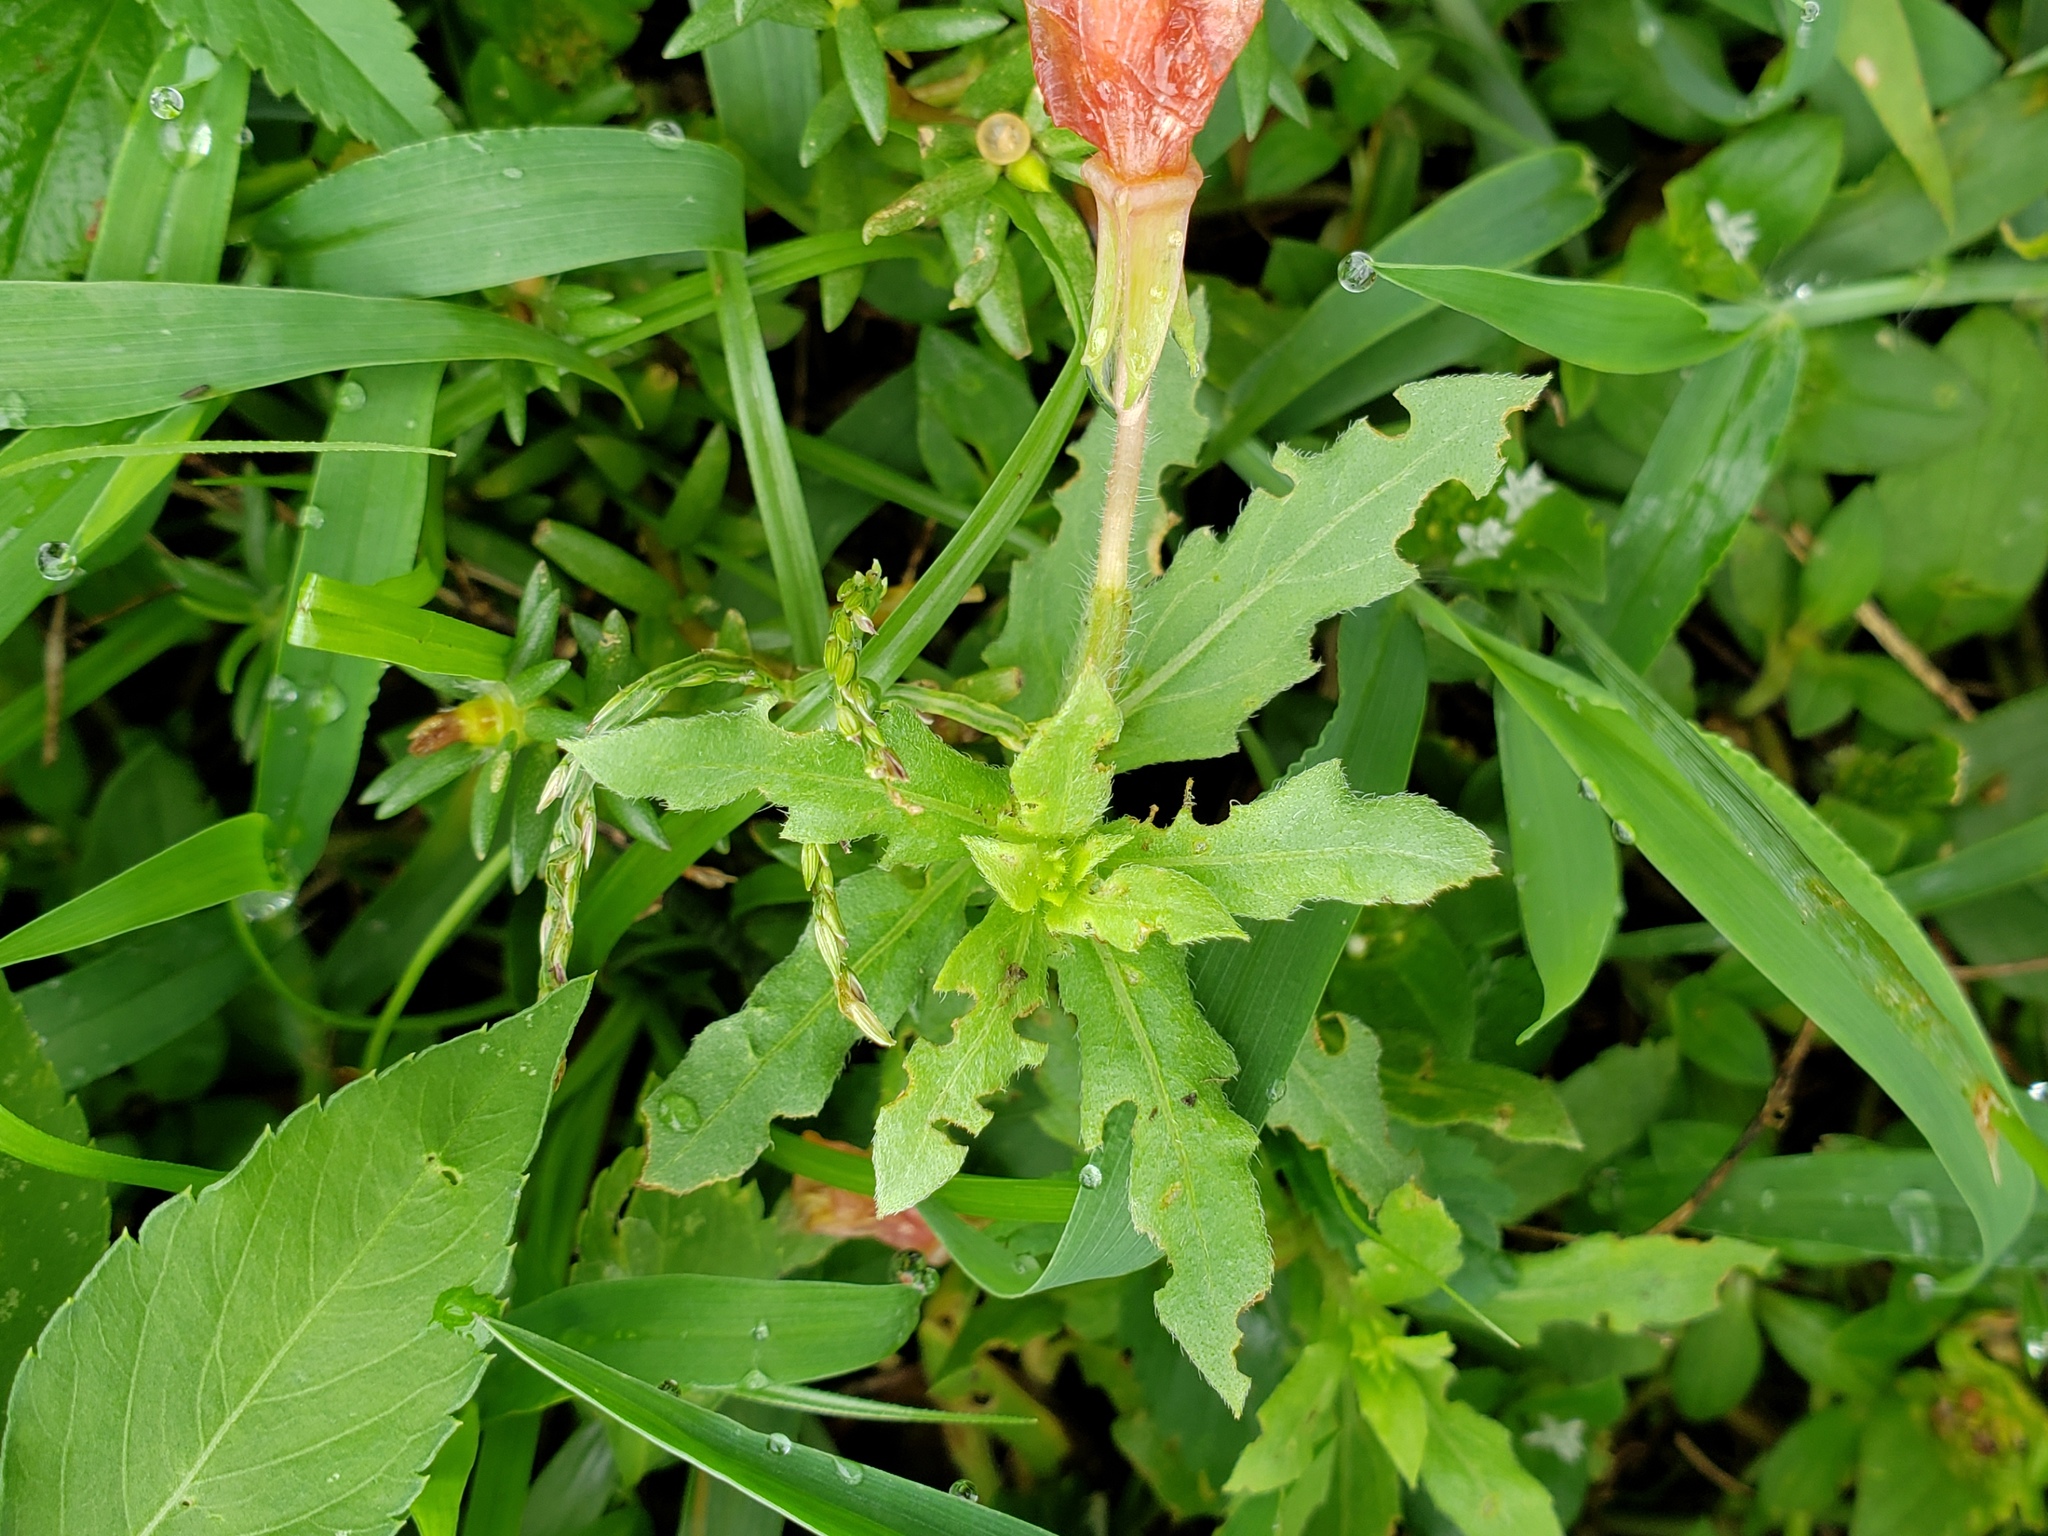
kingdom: Plantae
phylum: Tracheophyta
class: Magnoliopsida
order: Myrtales
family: Onagraceae
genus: Oenothera
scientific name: Oenothera laciniata
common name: Cut-leaved evening-primrose
